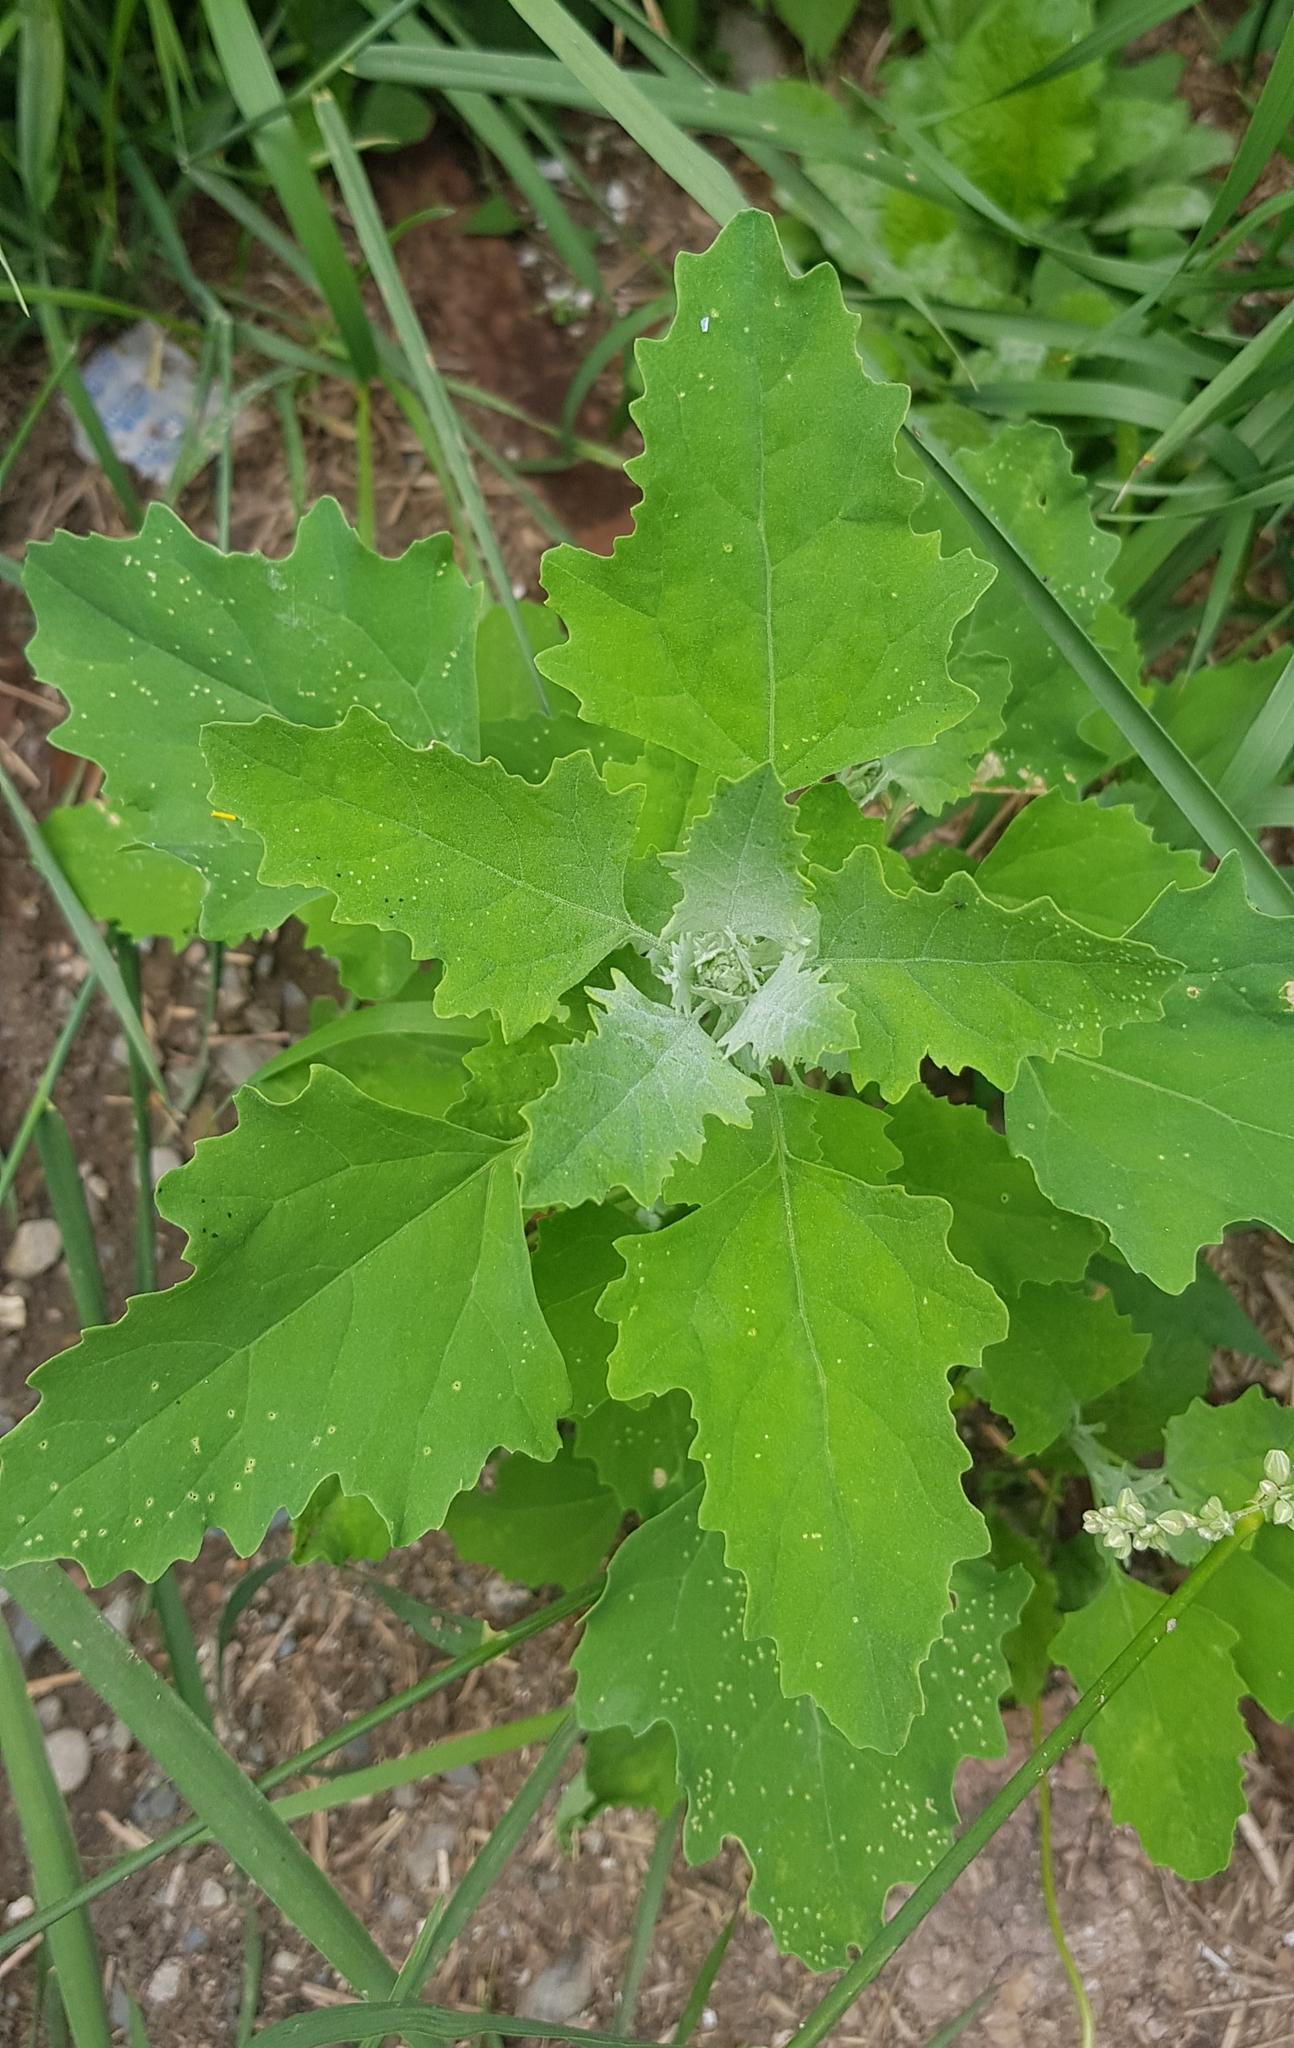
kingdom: Plantae
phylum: Tracheophyta
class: Magnoliopsida
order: Caryophyllales
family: Amaranthaceae
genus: Chenopodium
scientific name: Chenopodium album
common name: Fat-hen
